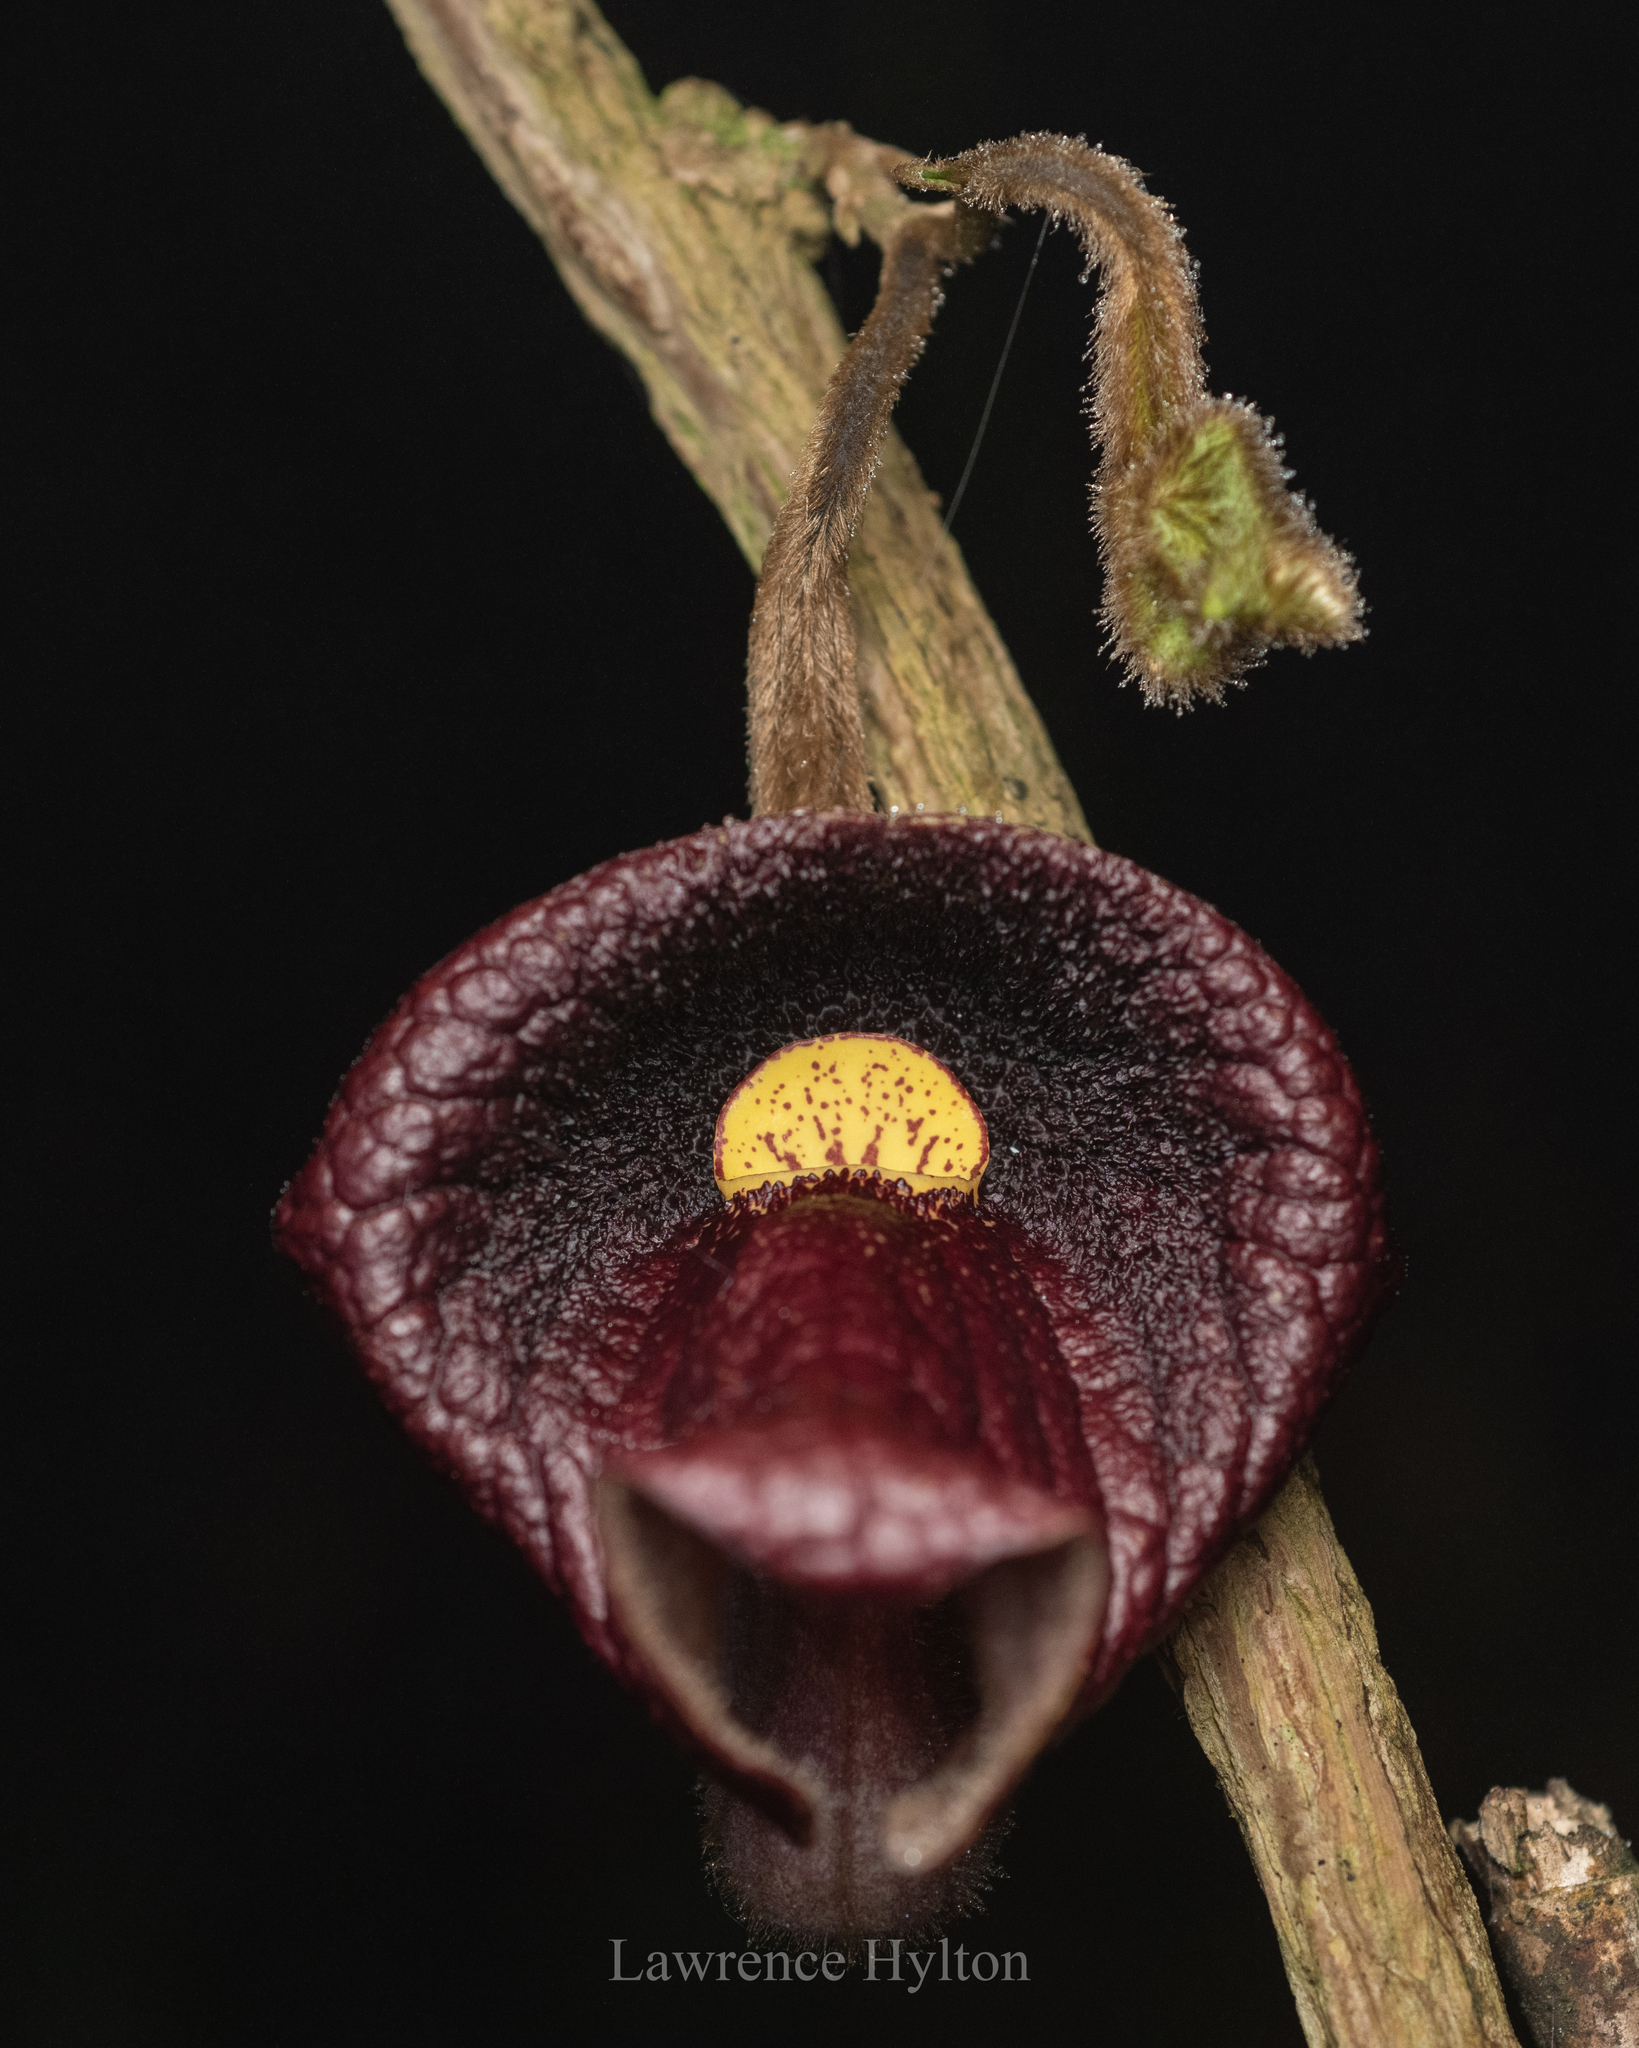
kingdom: Plantae
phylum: Tracheophyta
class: Magnoliopsida
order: Piperales
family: Aristolochiaceae
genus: Isotrema
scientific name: Isotrema championii
